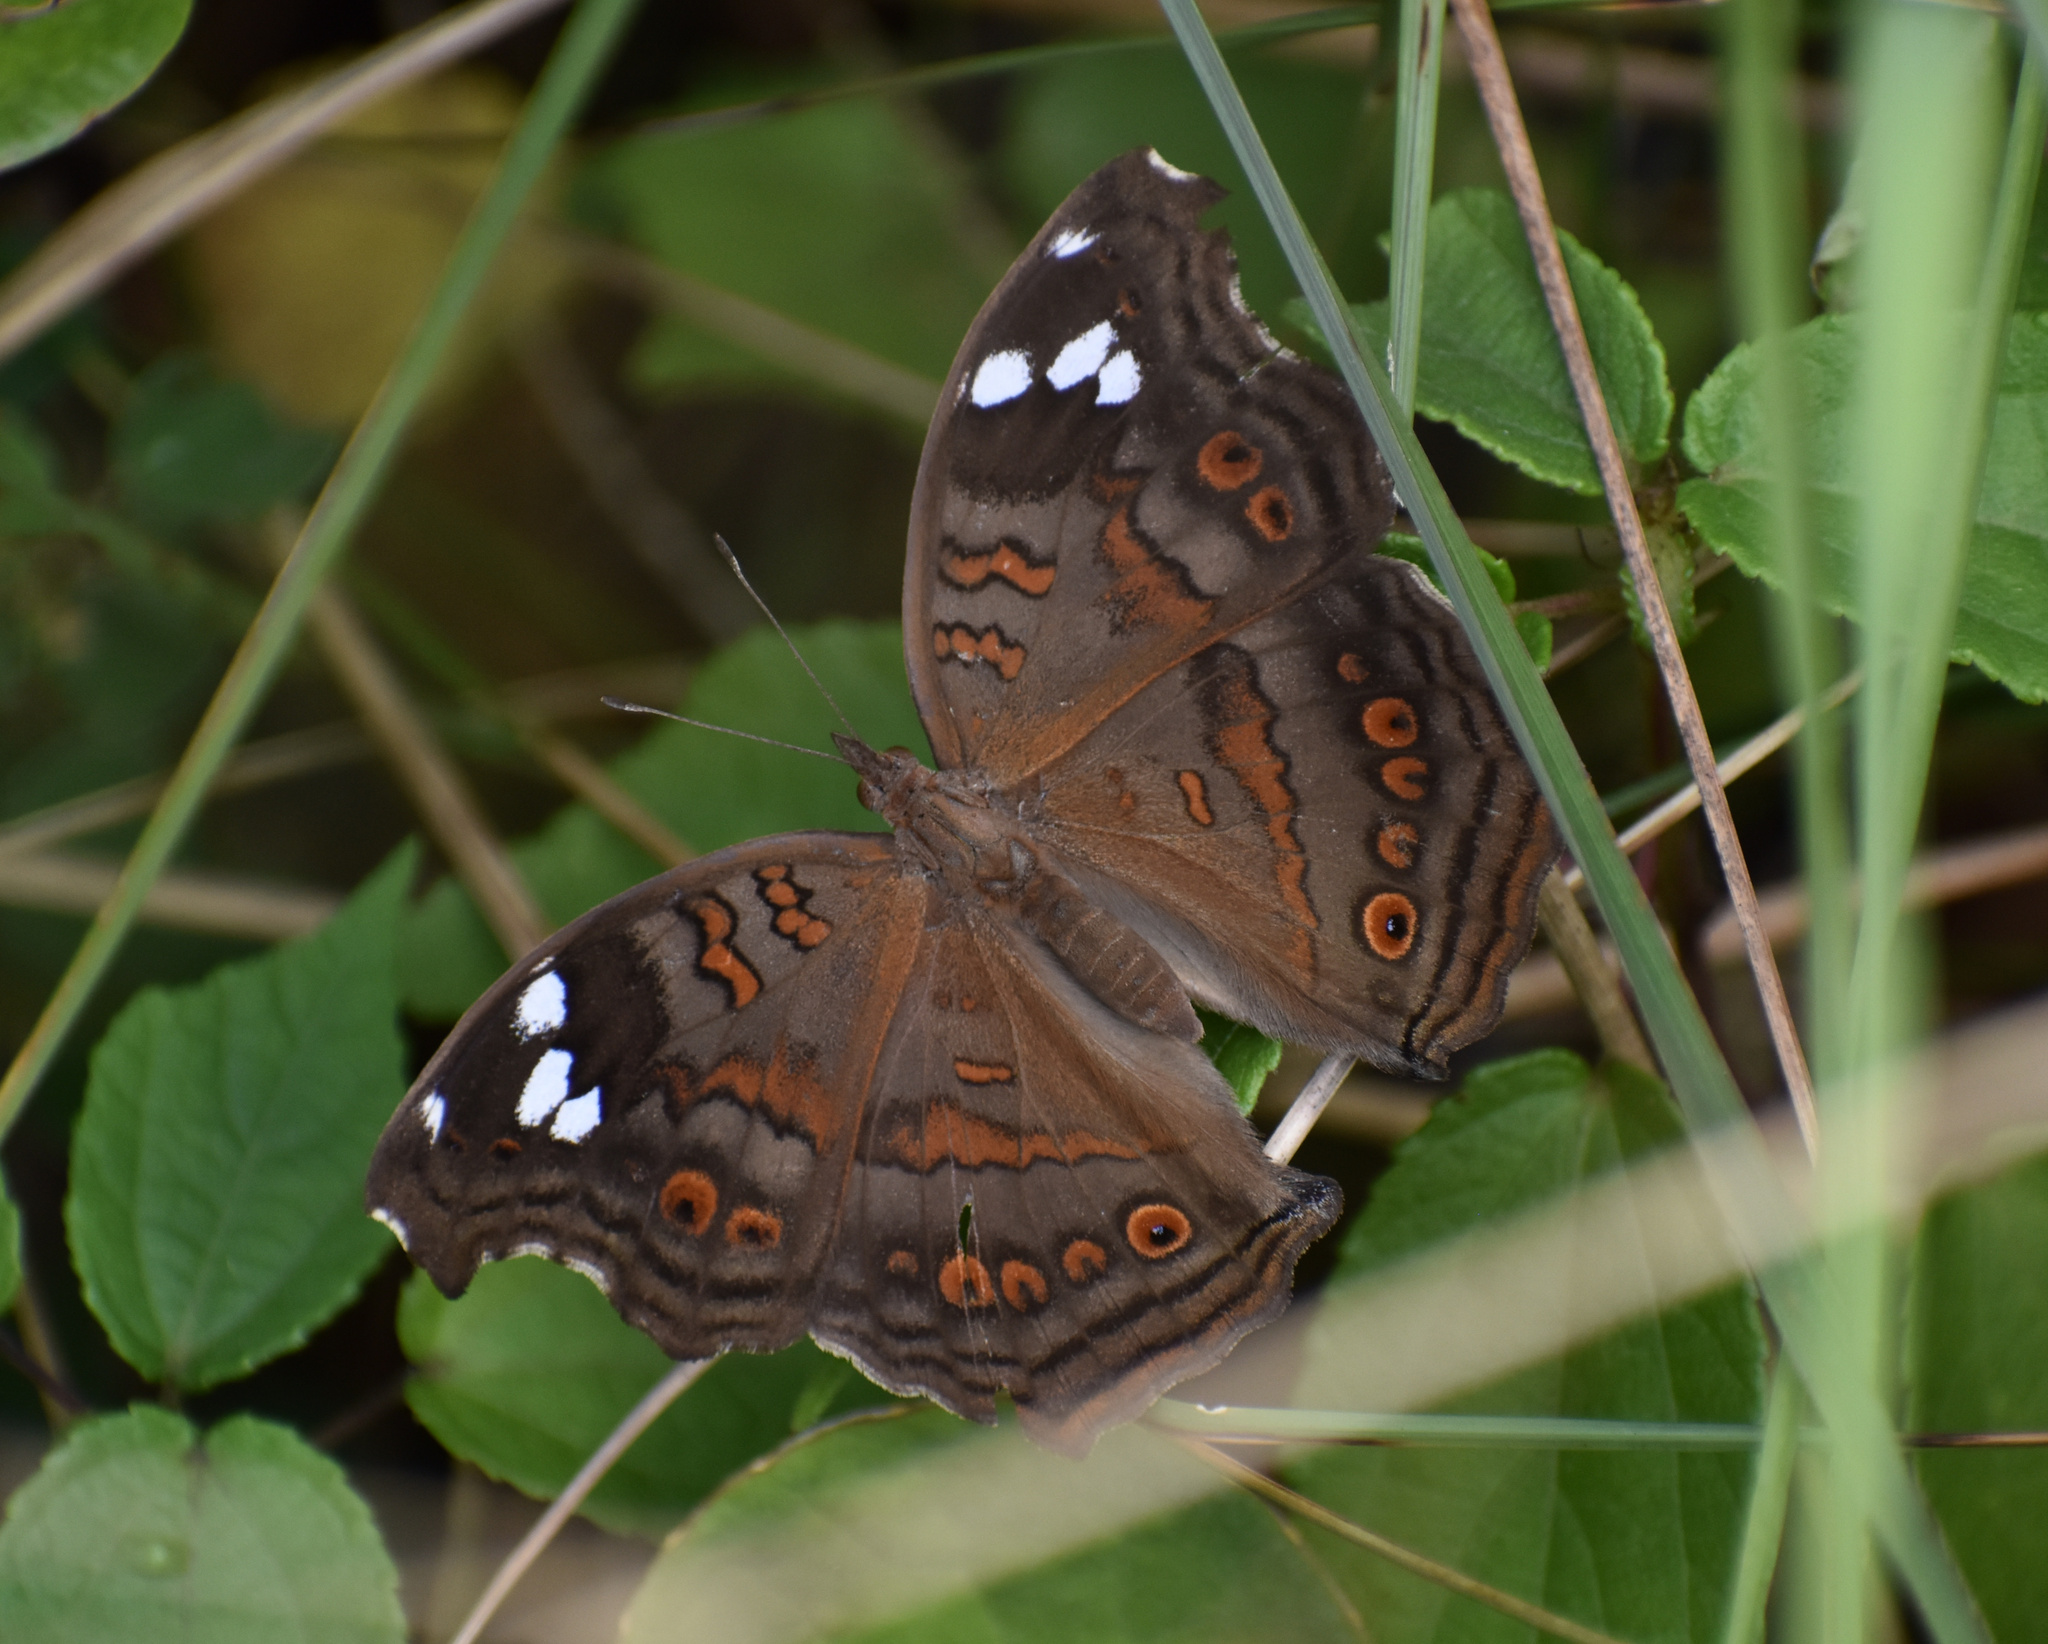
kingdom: Animalia
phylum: Arthropoda
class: Insecta
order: Lepidoptera
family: Nymphalidae
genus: Junonia
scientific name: Junonia natalica
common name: Brown pansy
